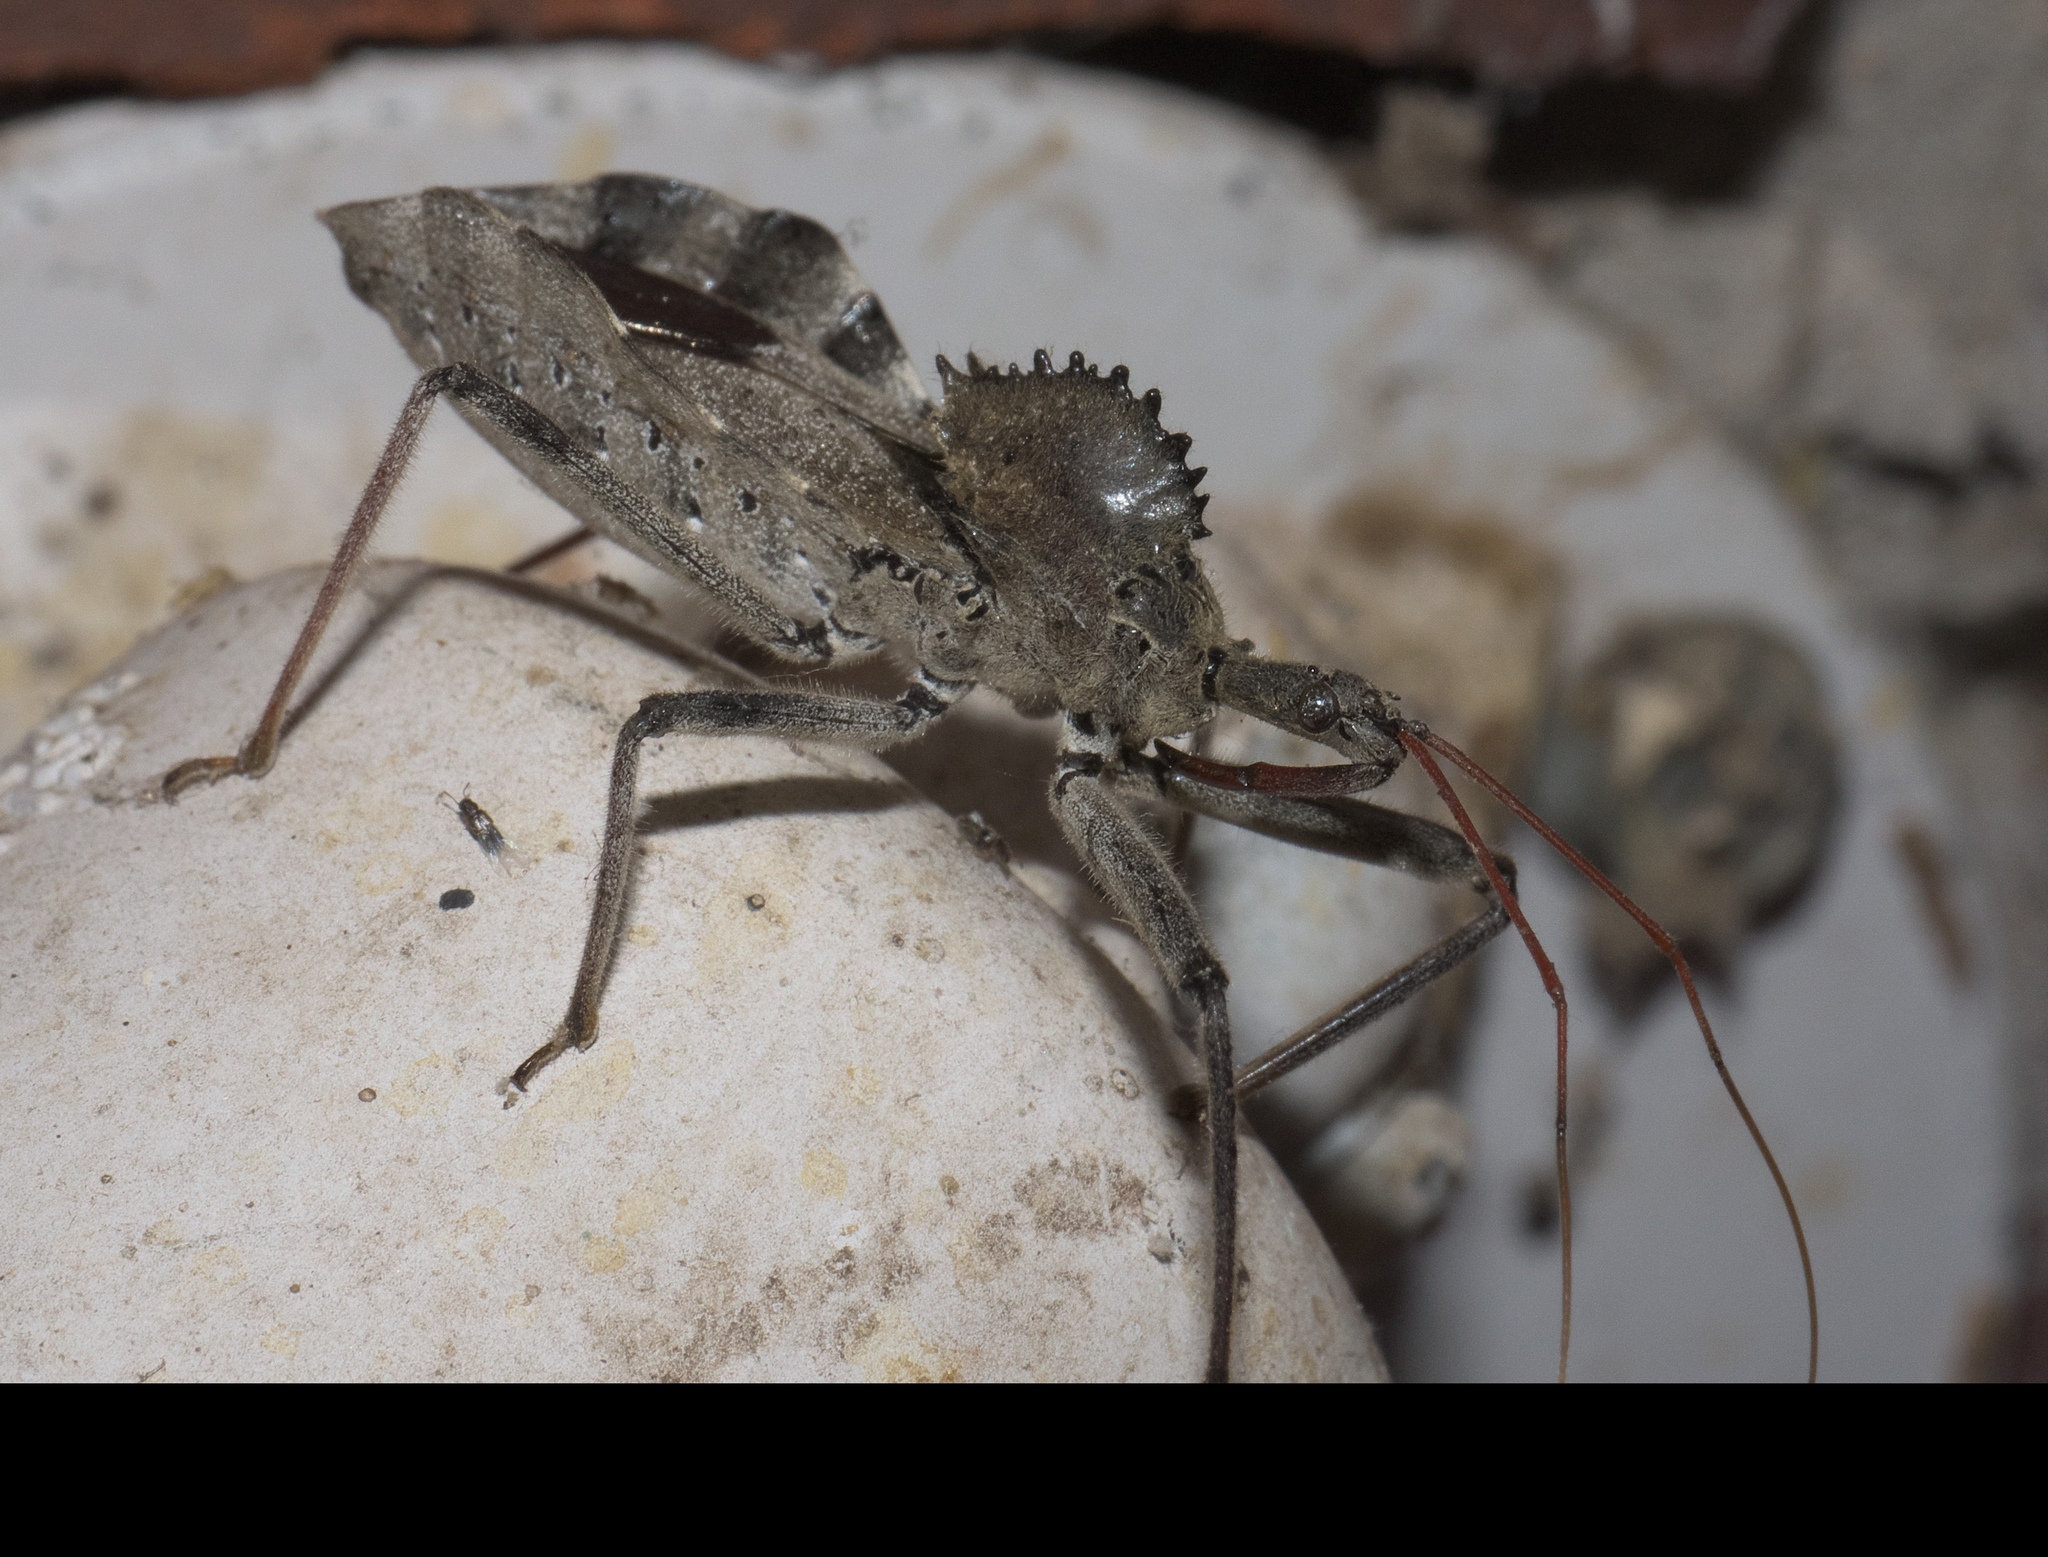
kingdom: Animalia
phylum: Arthropoda
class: Insecta
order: Hemiptera
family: Reduviidae
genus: Arilus
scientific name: Arilus cristatus
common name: North american wheel bug
